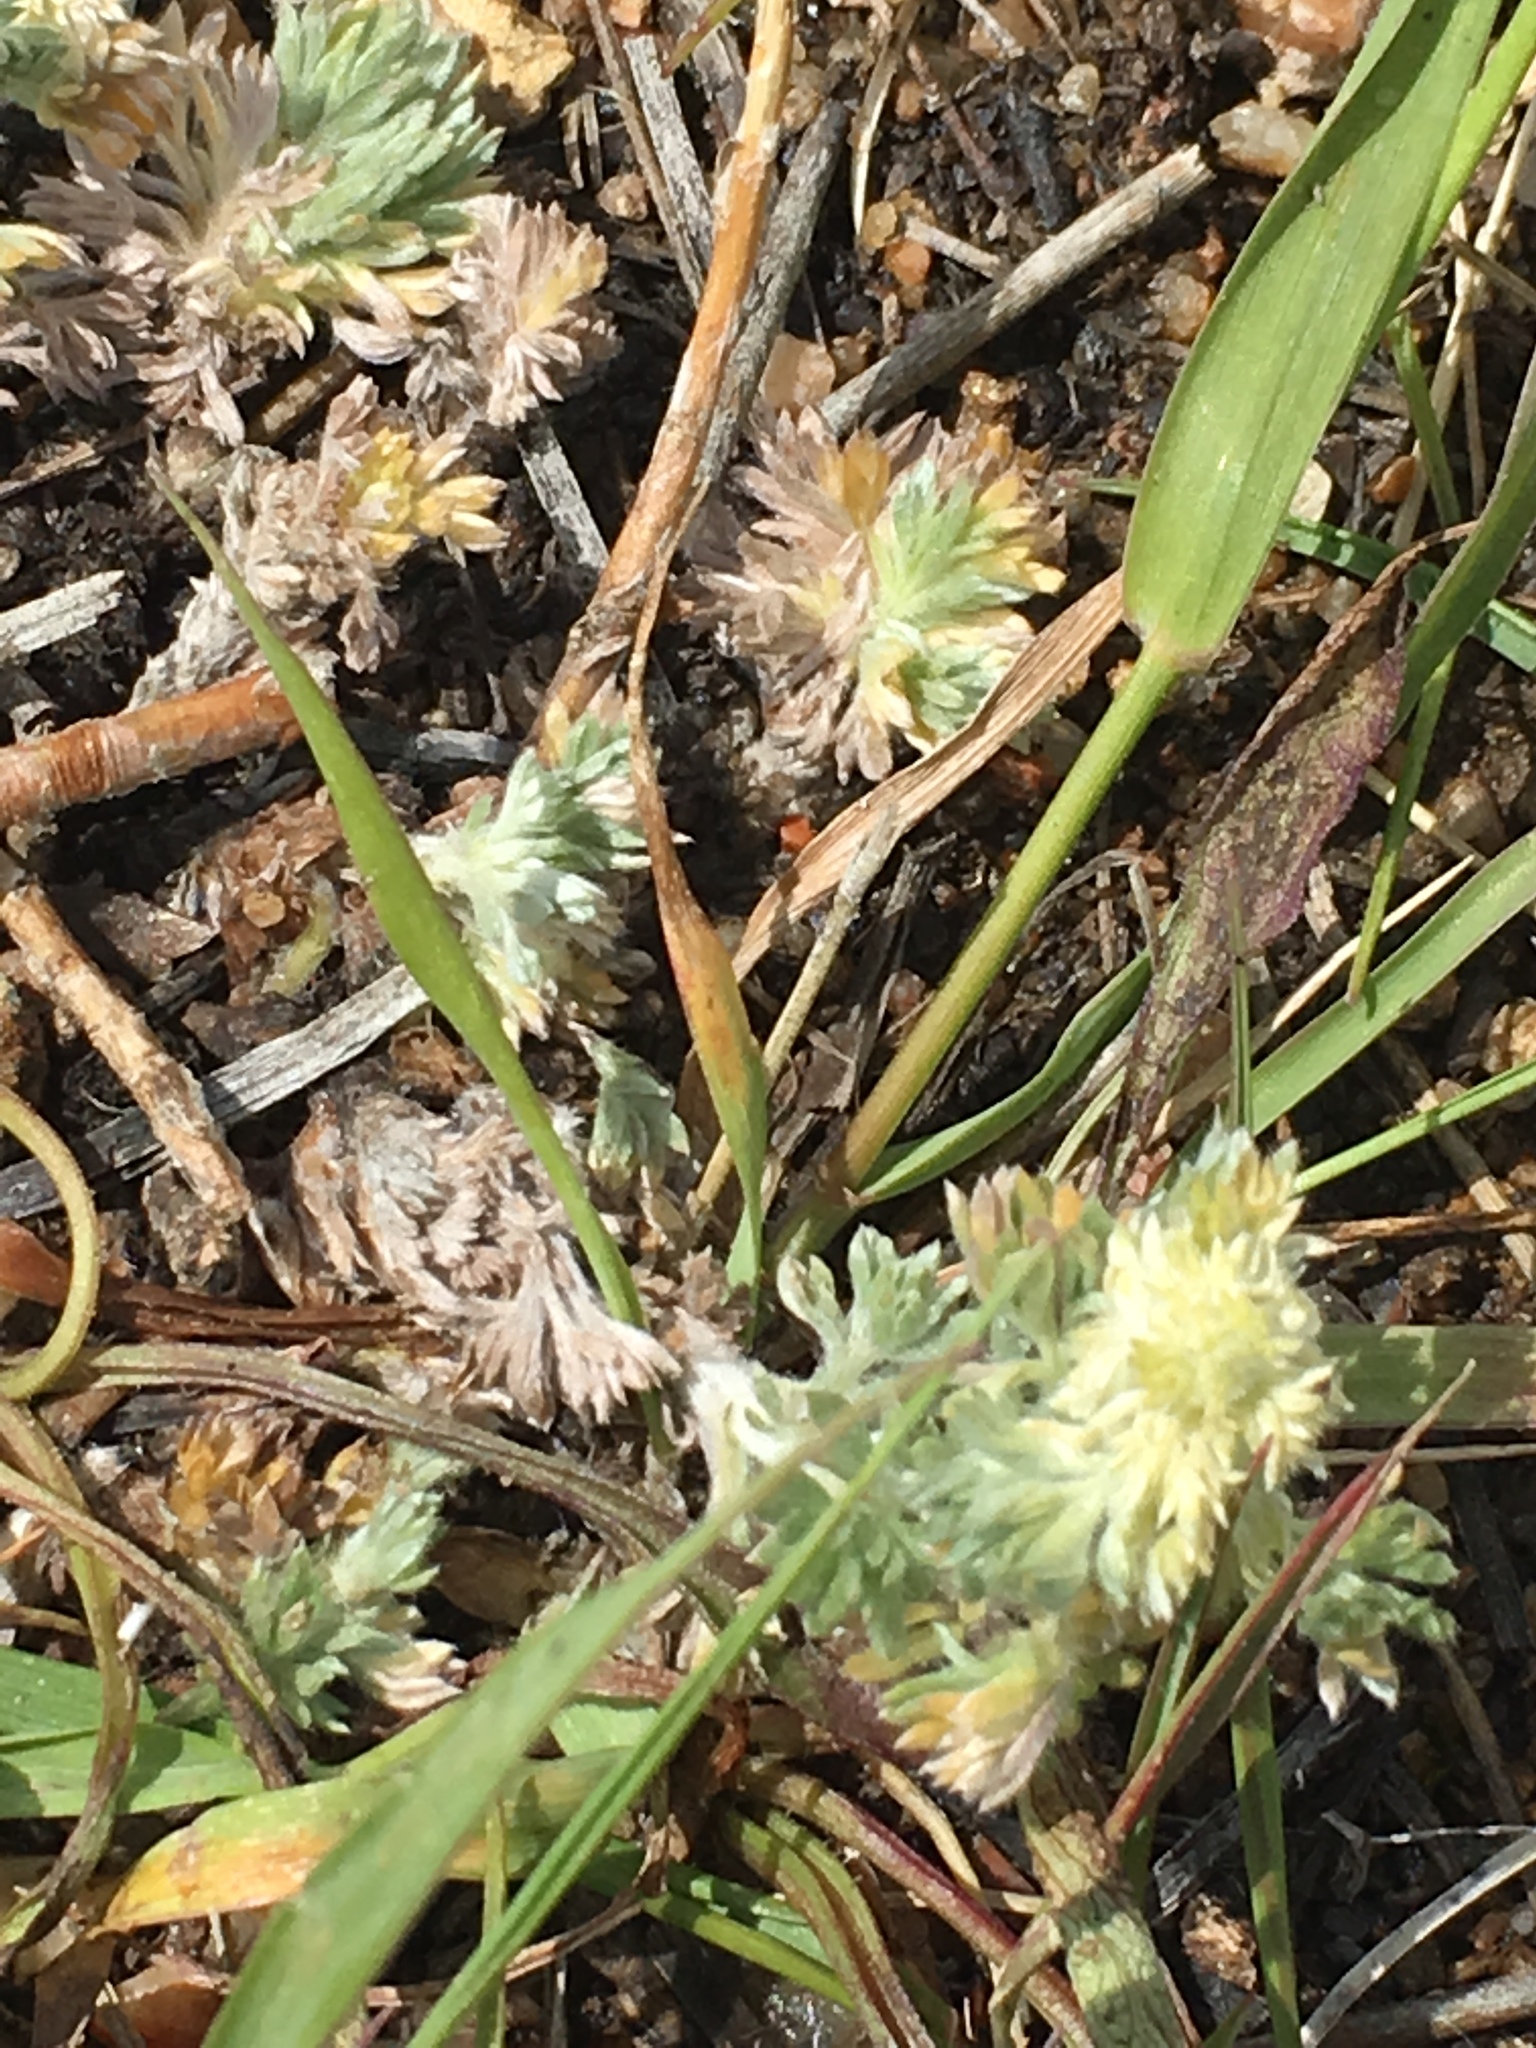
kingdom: Plantae
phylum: Tracheophyta
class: Magnoliopsida
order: Asterales
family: Asteraceae
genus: Artemisia
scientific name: Artemisia frigida
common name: Prairie sagewort
